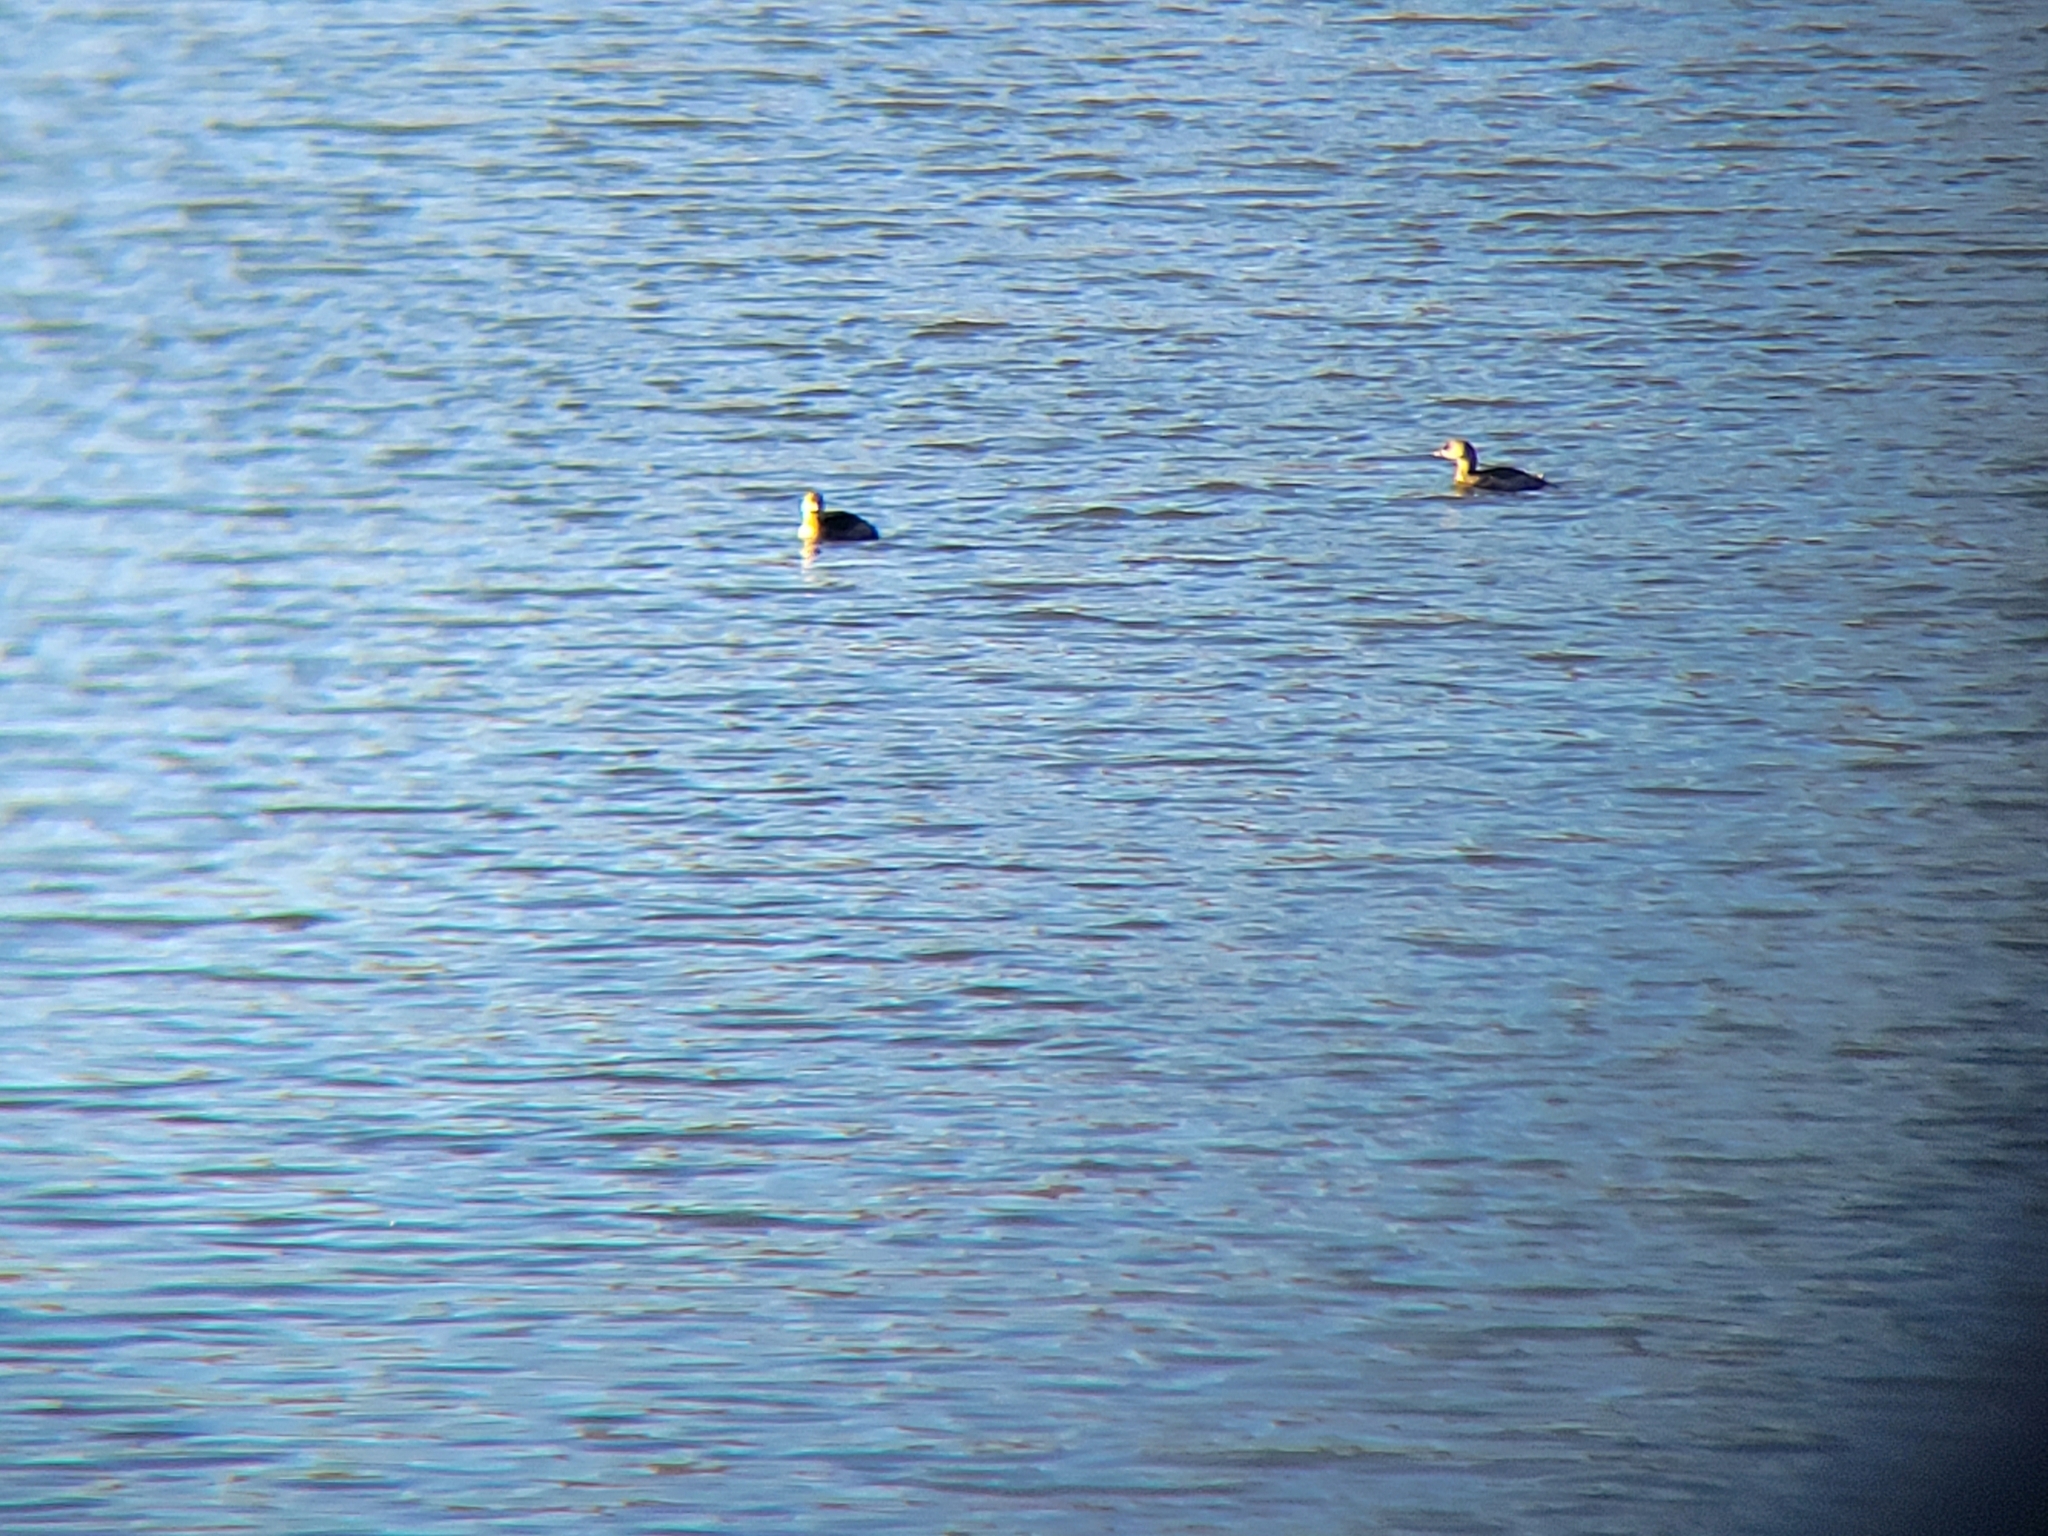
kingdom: Animalia
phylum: Chordata
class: Aves
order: Podicipediformes
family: Podicipedidae
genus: Podilymbus
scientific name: Podilymbus podiceps
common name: Pied-billed grebe
